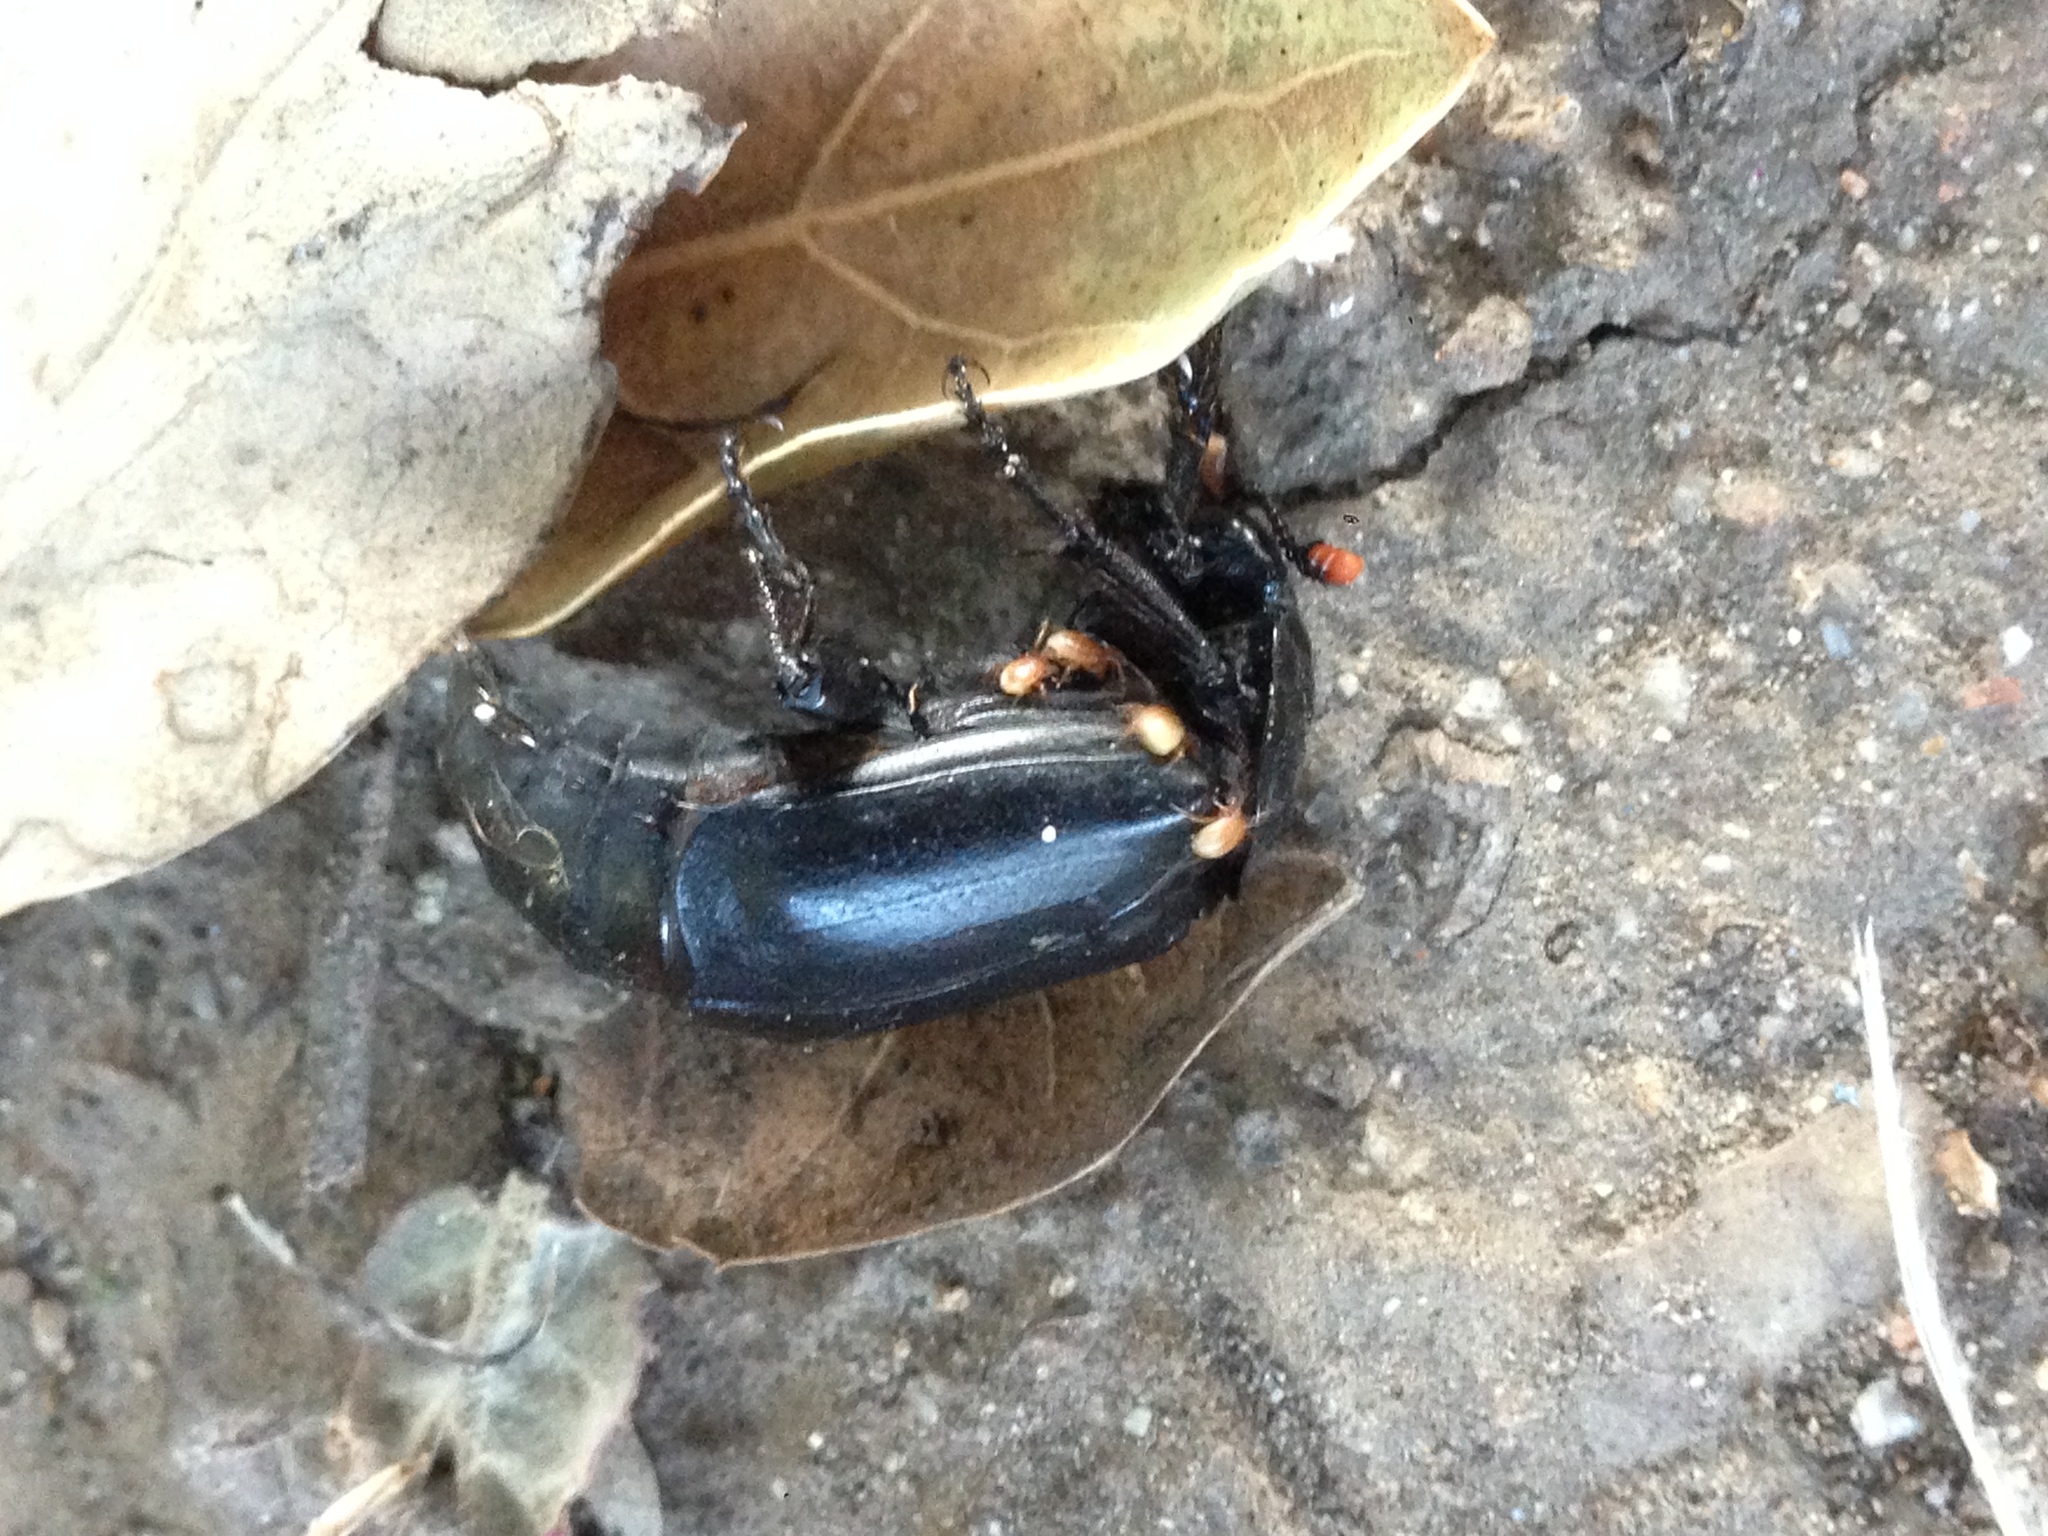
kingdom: Animalia
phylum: Arthropoda
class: Insecta
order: Coleoptera
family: Staphylinidae
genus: Nicrophorus
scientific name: Nicrophorus nigrita
